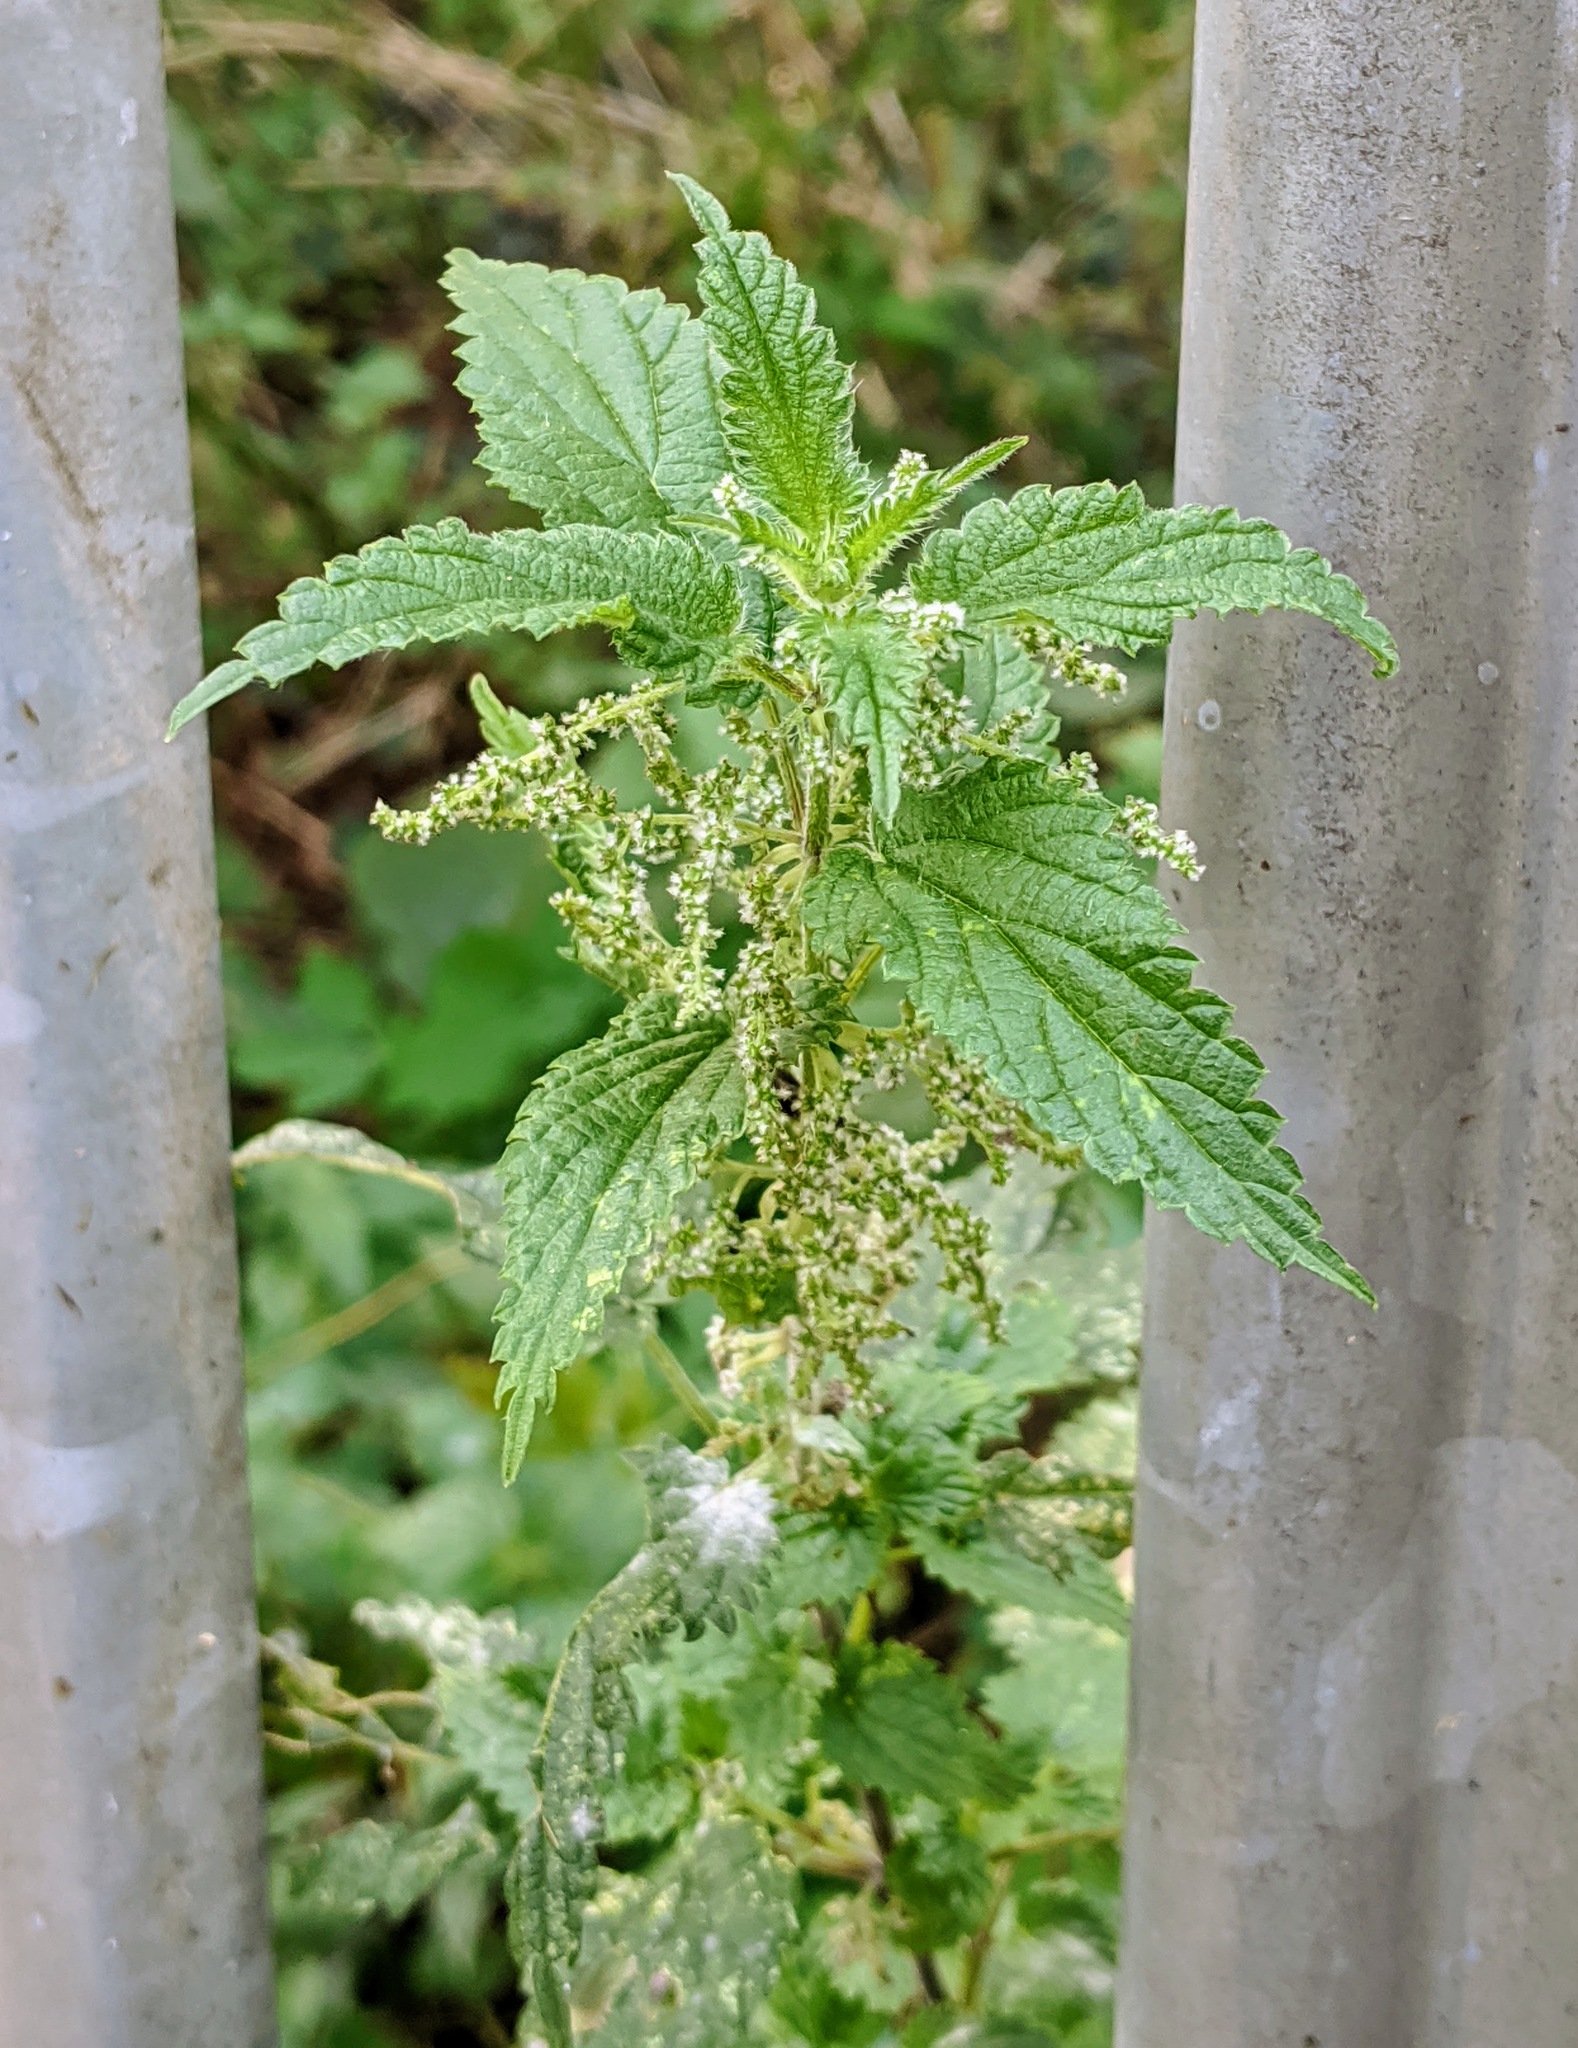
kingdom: Plantae
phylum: Tracheophyta
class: Magnoliopsida
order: Rosales
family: Urticaceae
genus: Urtica
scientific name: Urtica dioica
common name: Common nettle
